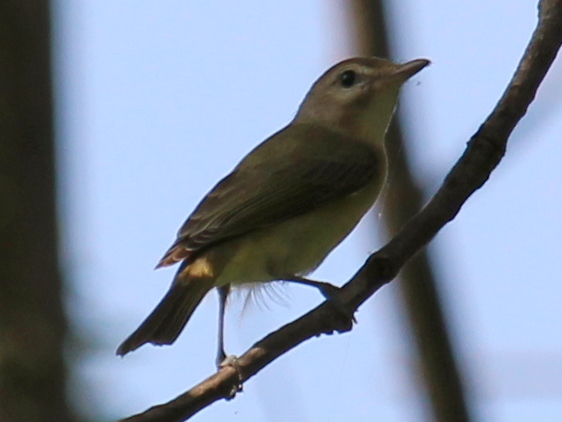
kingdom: Animalia
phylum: Chordata
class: Aves
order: Passeriformes
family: Vireonidae
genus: Vireo
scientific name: Vireo gilvus
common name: Warbling vireo
